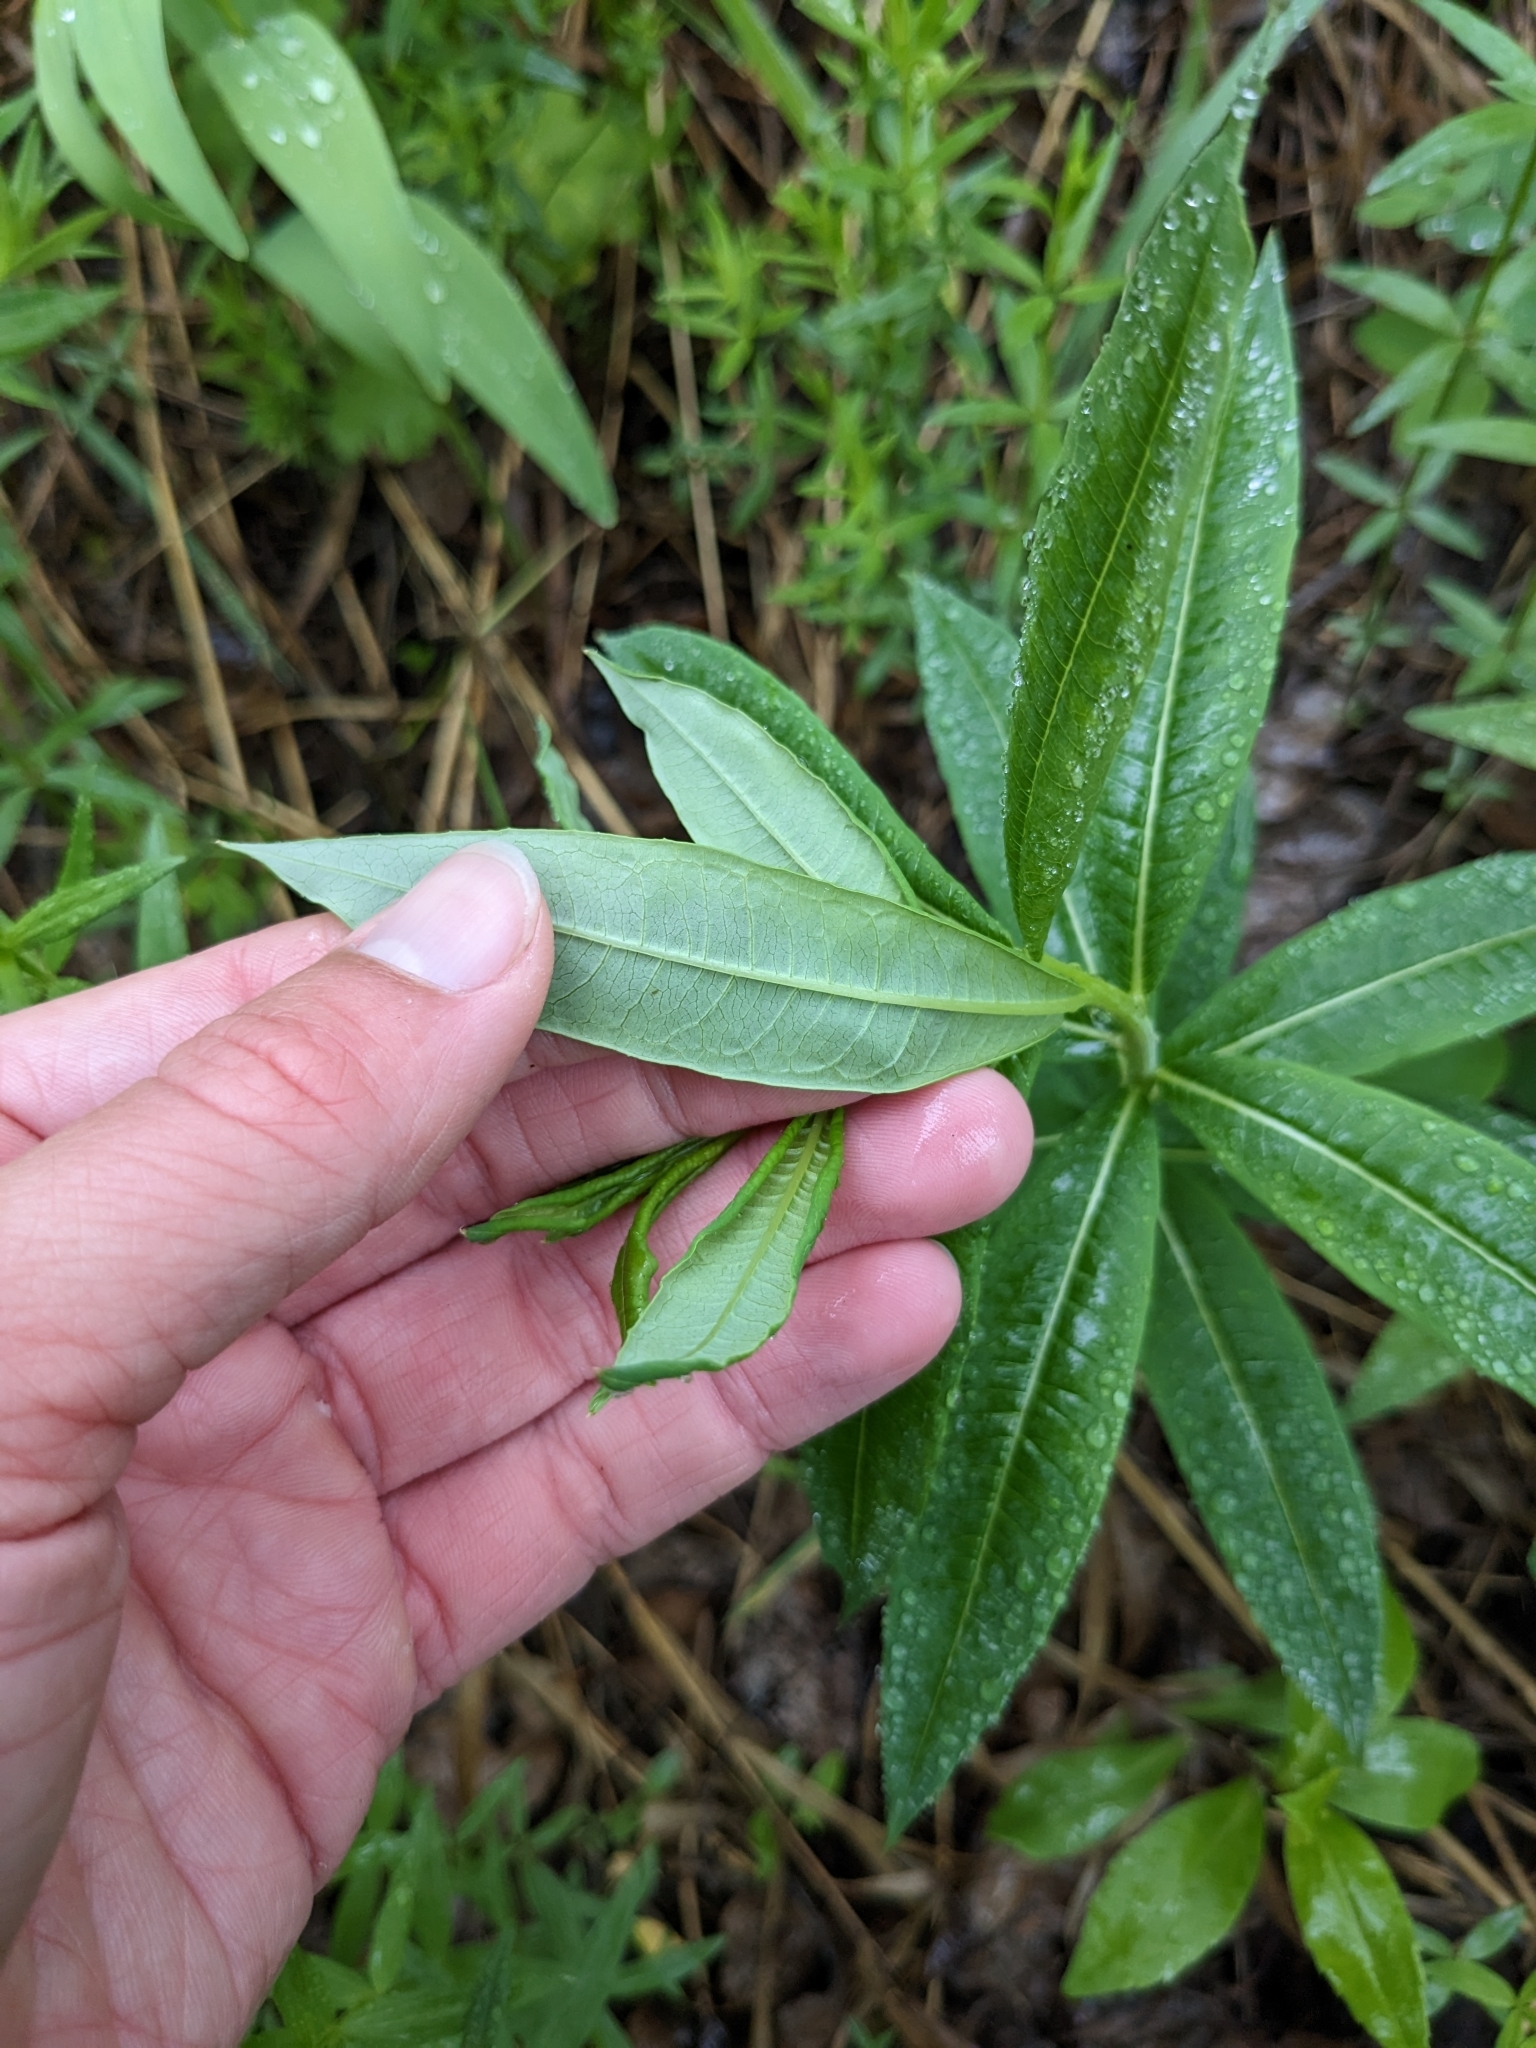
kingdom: Plantae
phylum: Tracheophyta
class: Magnoliopsida
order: Myrtales
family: Onagraceae
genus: Chamaenerion
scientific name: Chamaenerion angustifolium
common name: Fireweed
